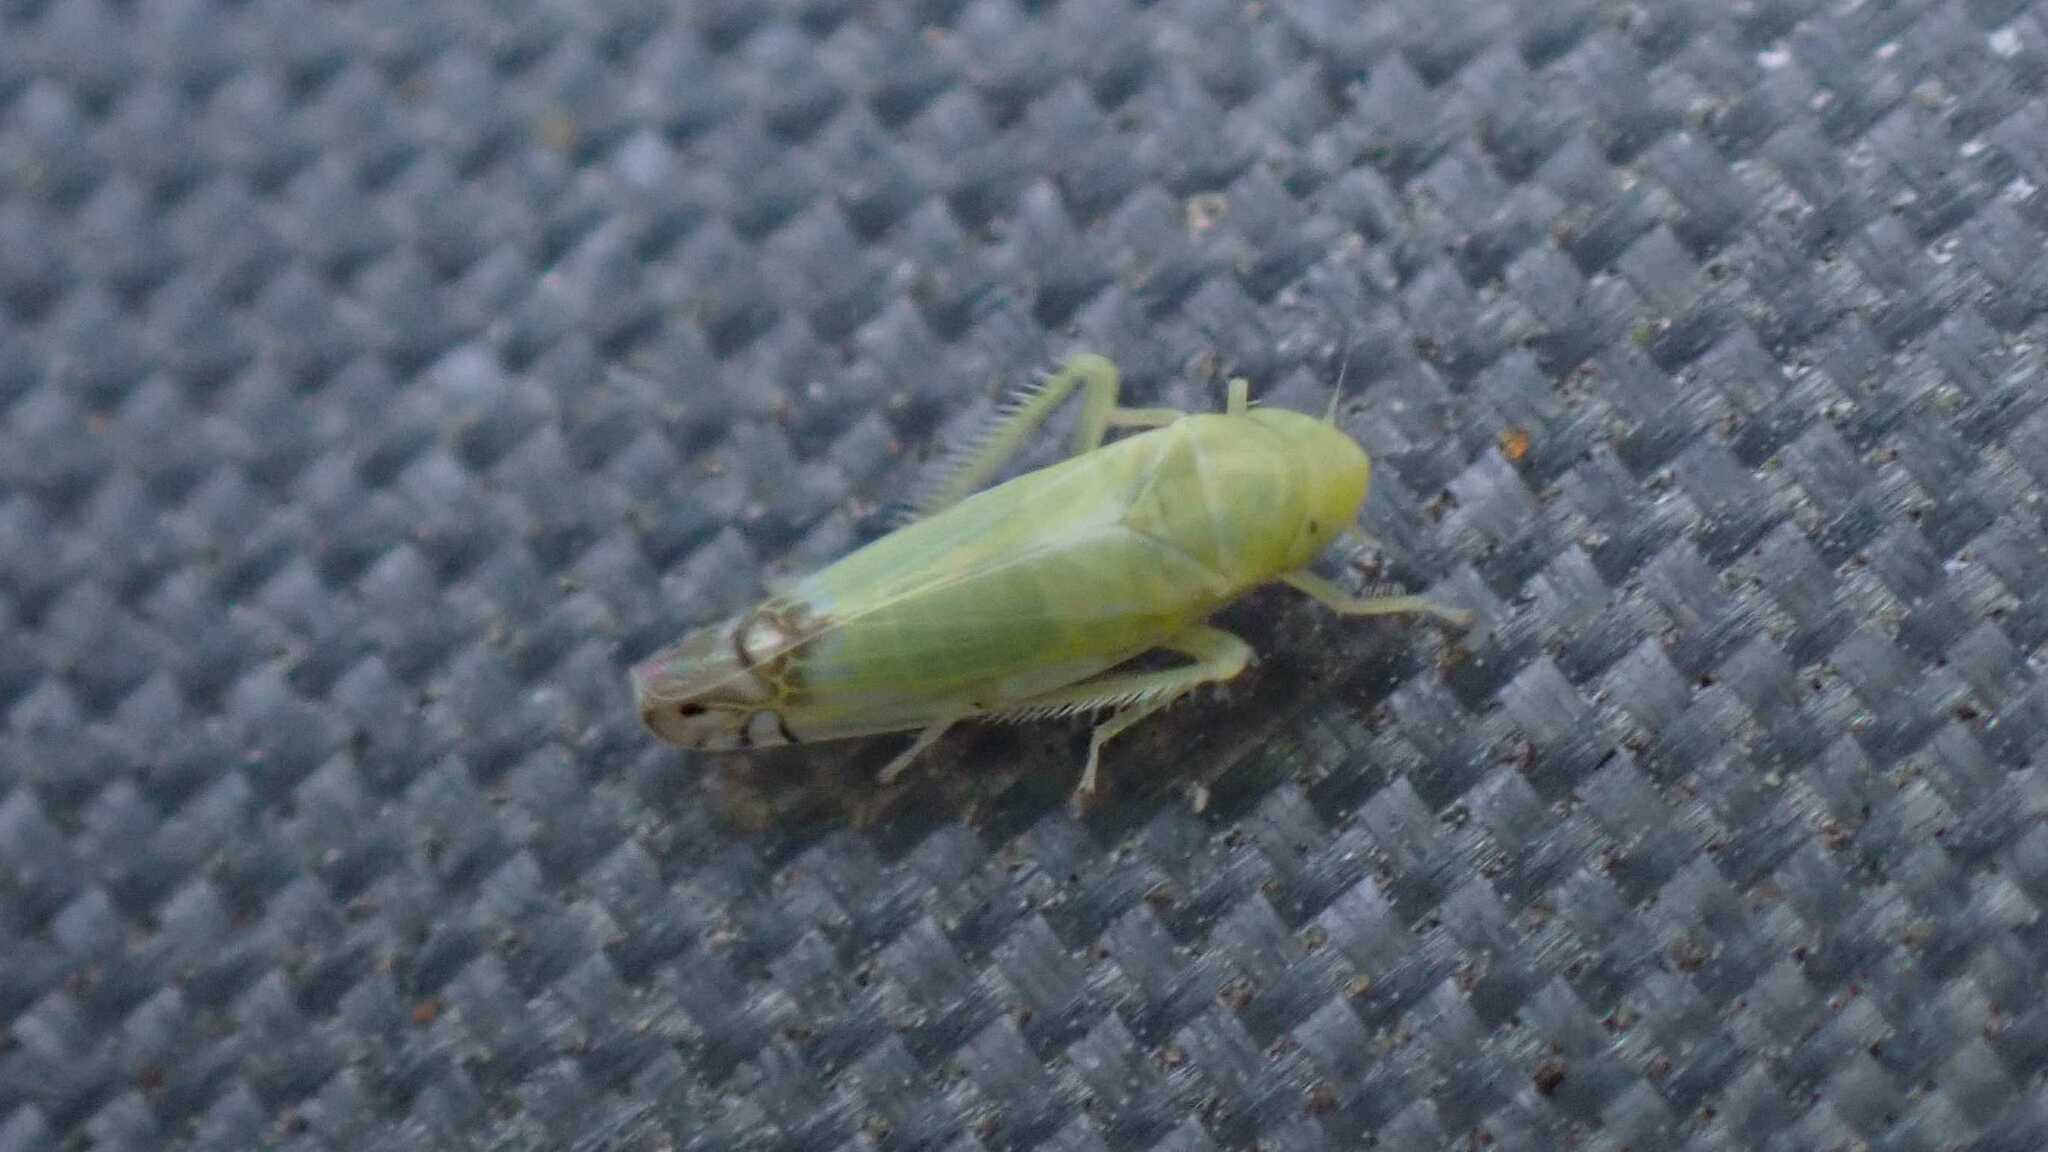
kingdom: Animalia
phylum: Arthropoda
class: Insecta
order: Hemiptera
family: Cicadellidae
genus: Zyginella
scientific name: Zyginella pulchra
